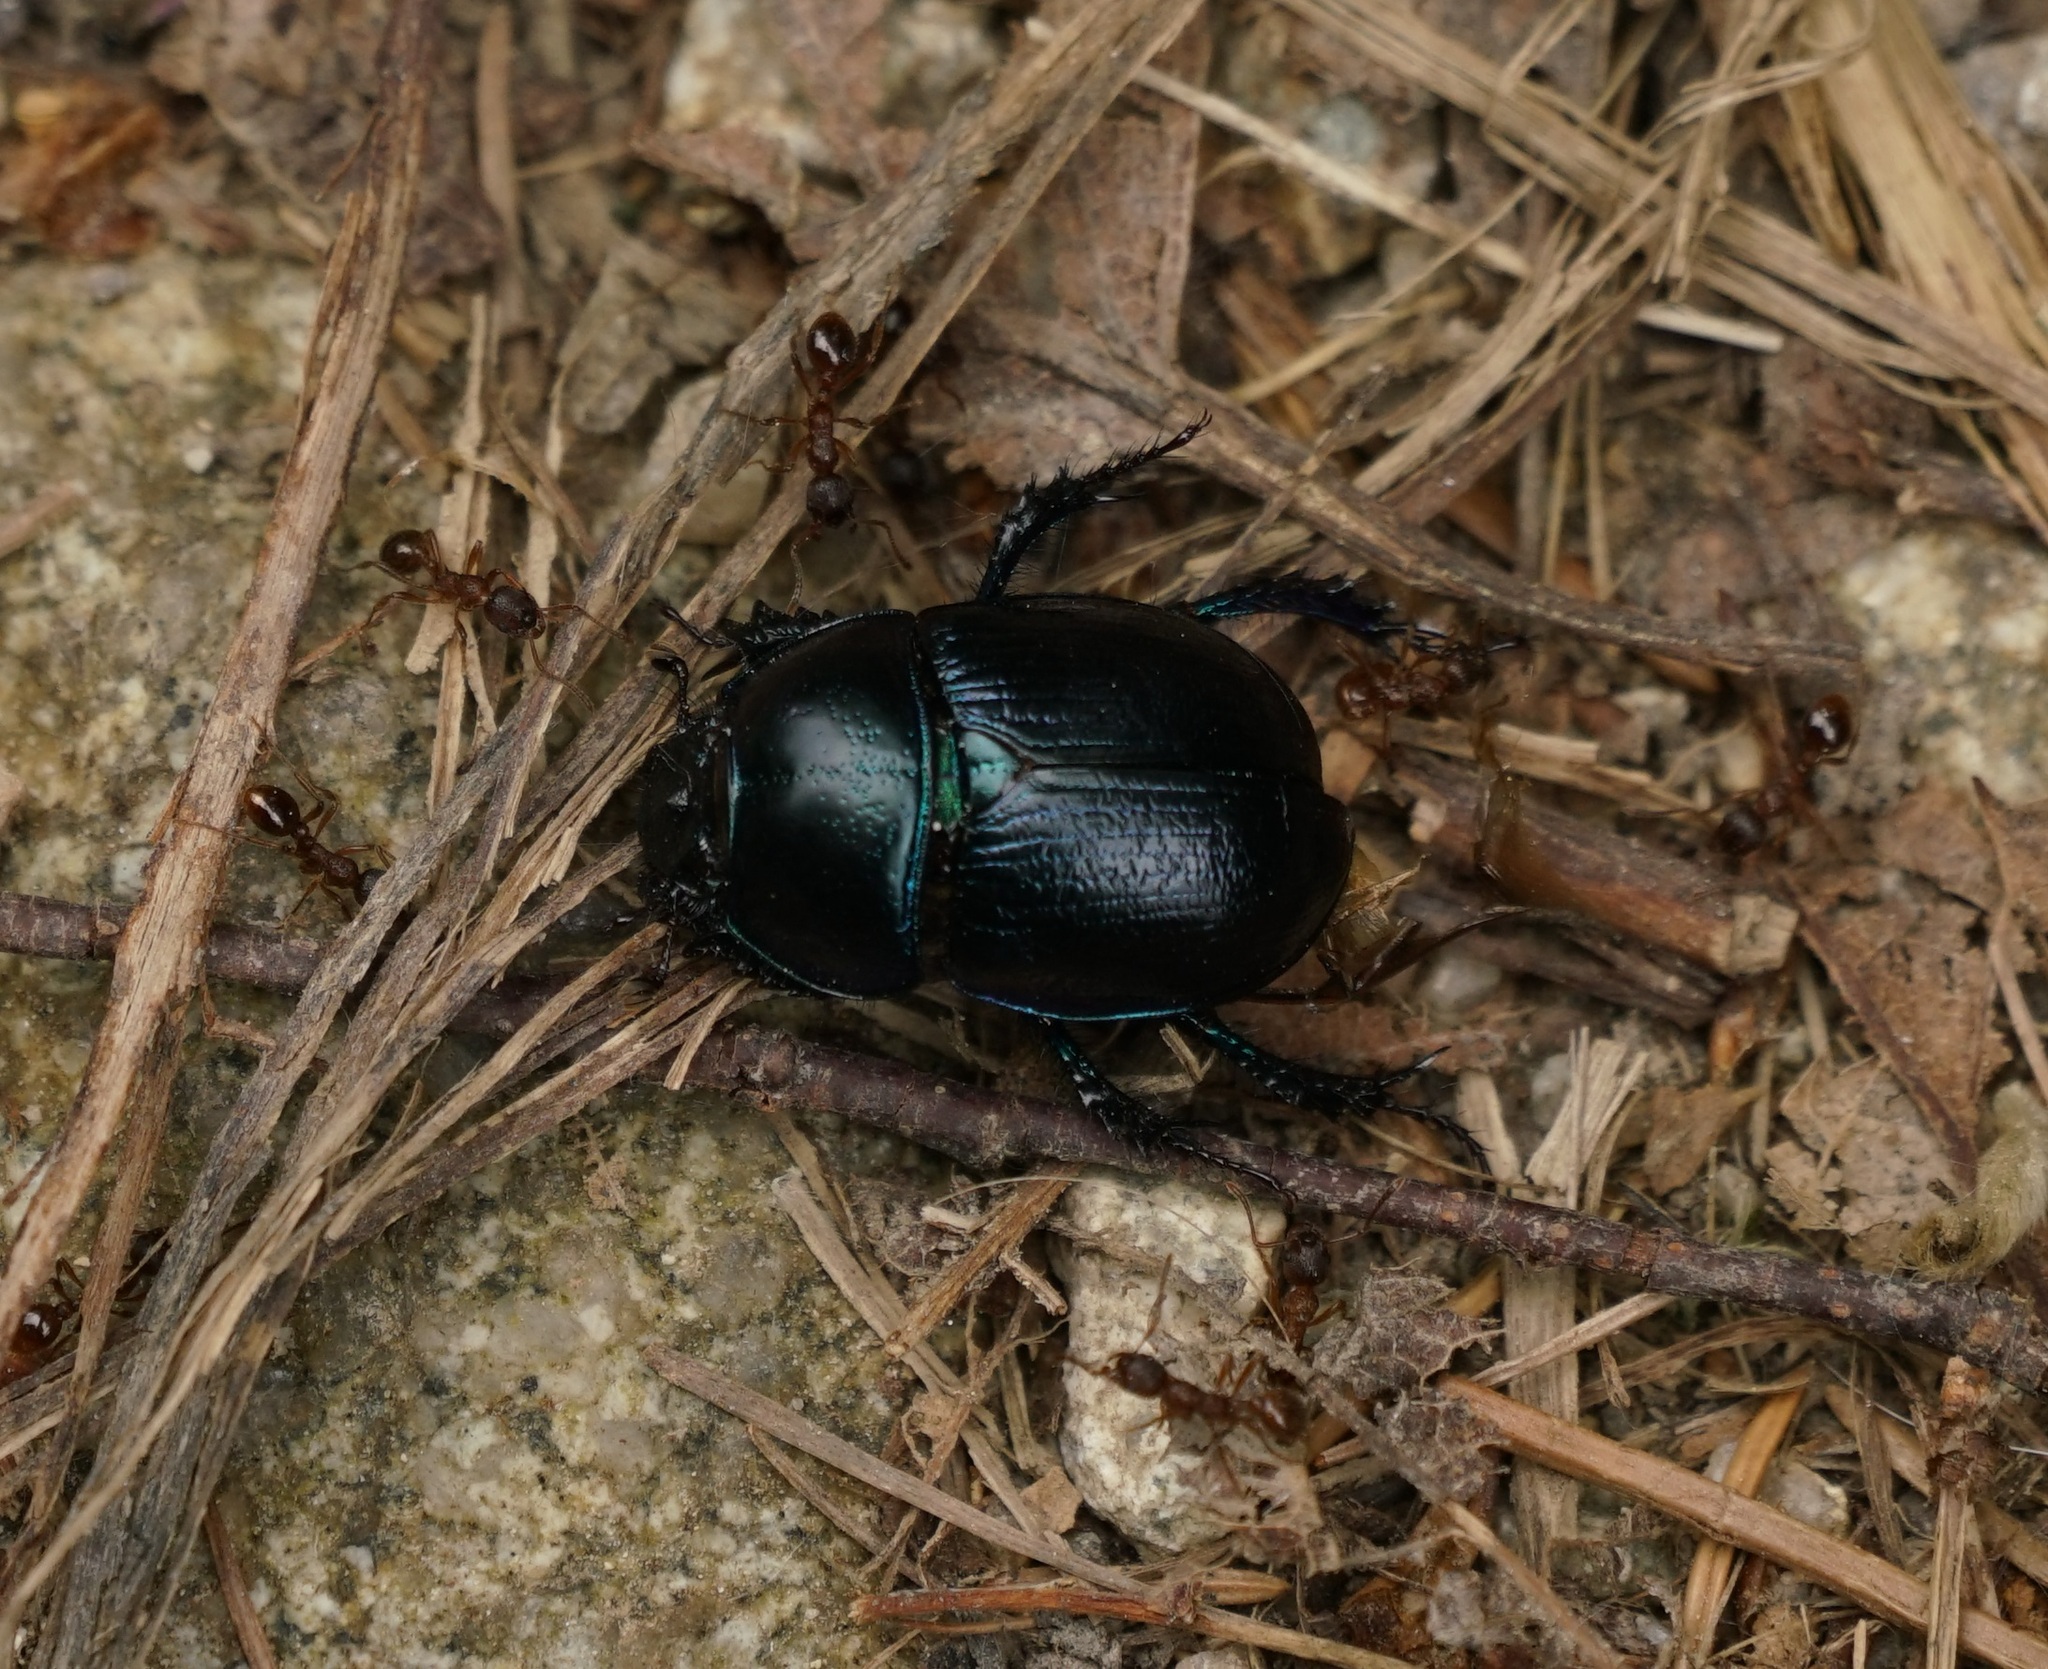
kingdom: Animalia
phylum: Arthropoda
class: Insecta
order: Coleoptera
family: Geotrupidae
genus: Anoplotrupes
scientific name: Anoplotrupes stercorosus
